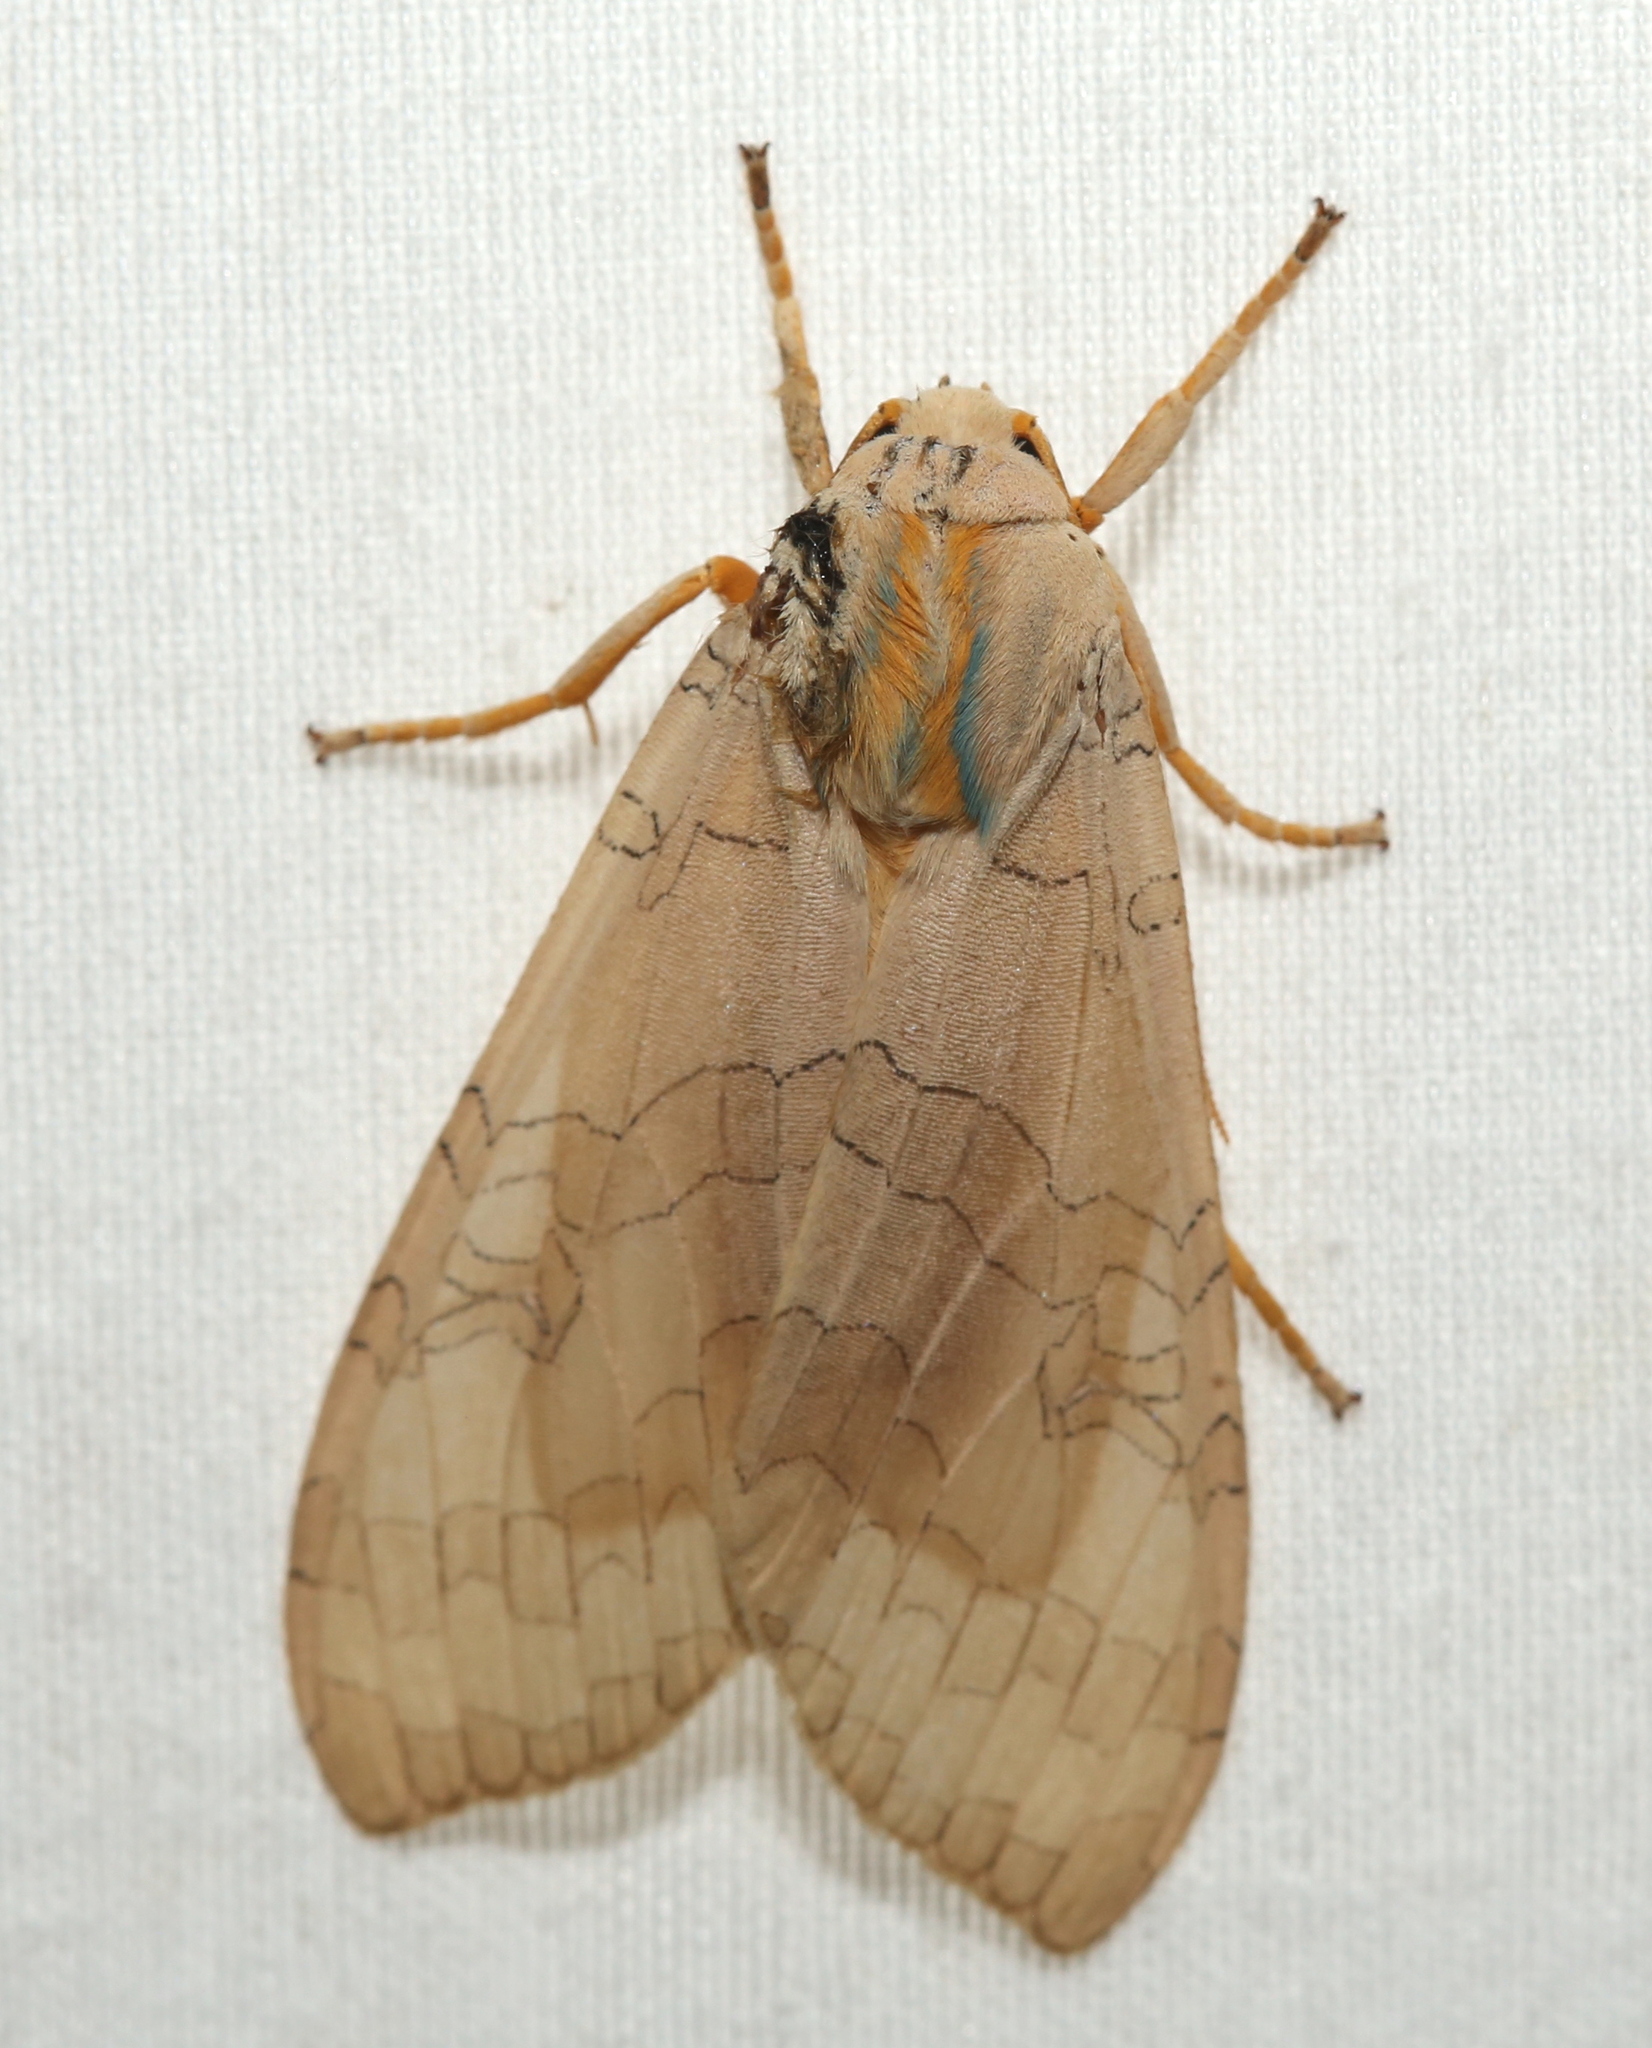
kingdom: Animalia
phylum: Arthropoda
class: Insecta
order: Lepidoptera
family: Erebidae
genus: Halysidota
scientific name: Halysidota
